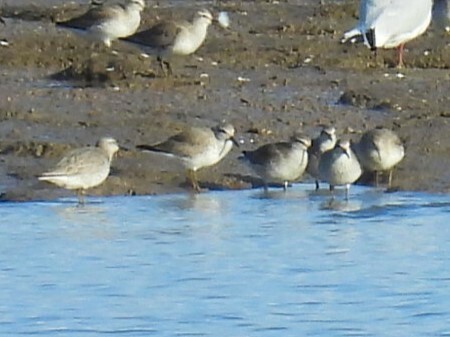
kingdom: Animalia
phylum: Chordata
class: Aves
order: Charadriiformes
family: Scolopacidae
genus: Calidris
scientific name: Calidris canutus
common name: Red knot
